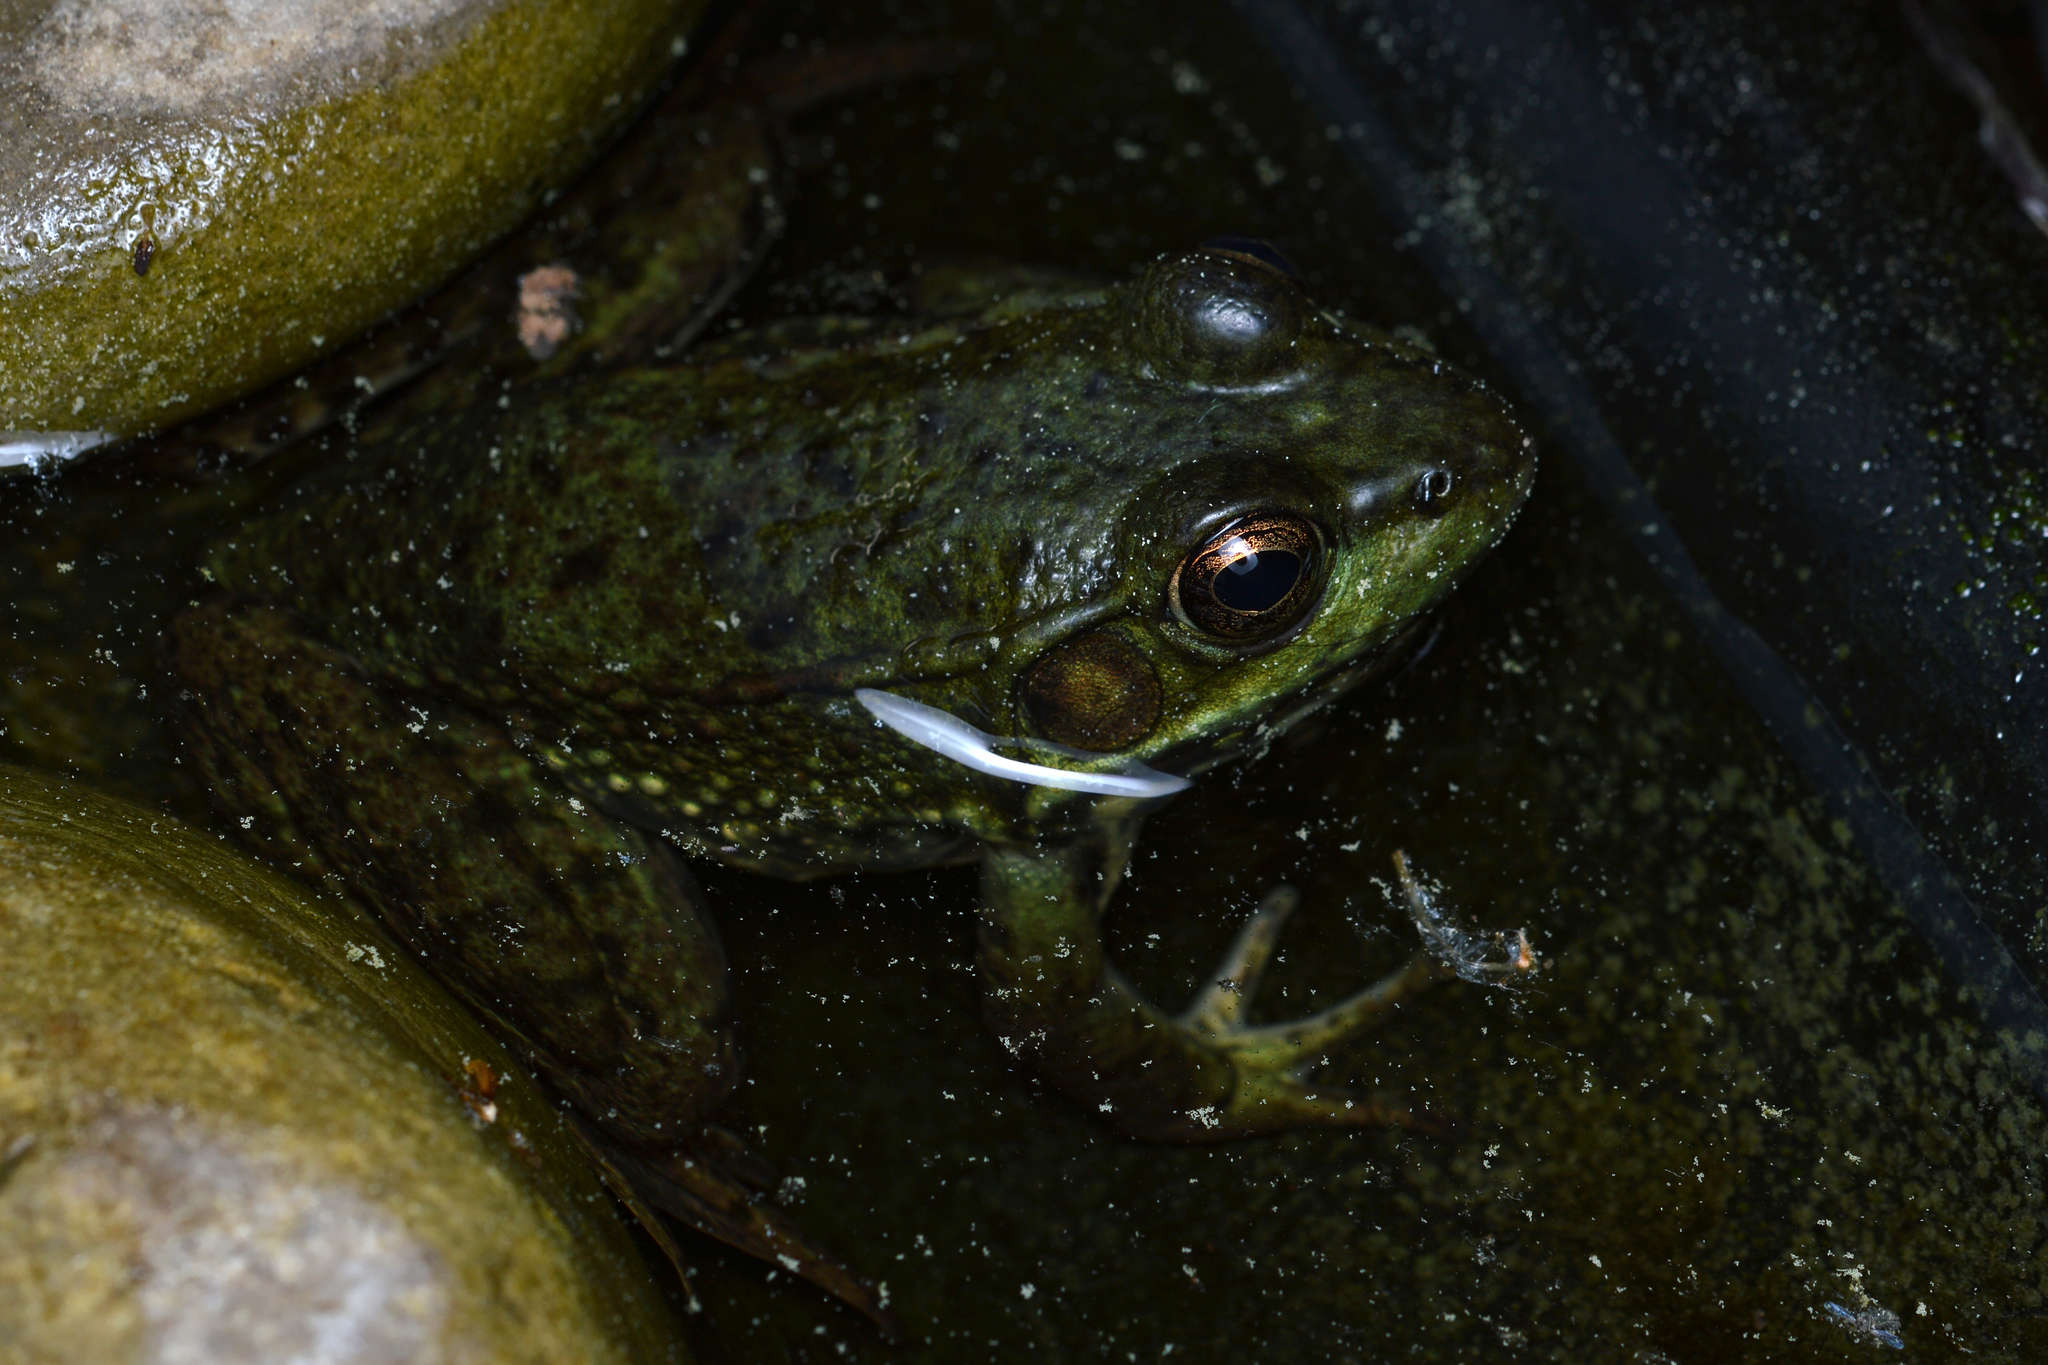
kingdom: Animalia
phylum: Chordata
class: Amphibia
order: Anura
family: Ranidae
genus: Lithobates
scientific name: Lithobates clamitans
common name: Green frog
